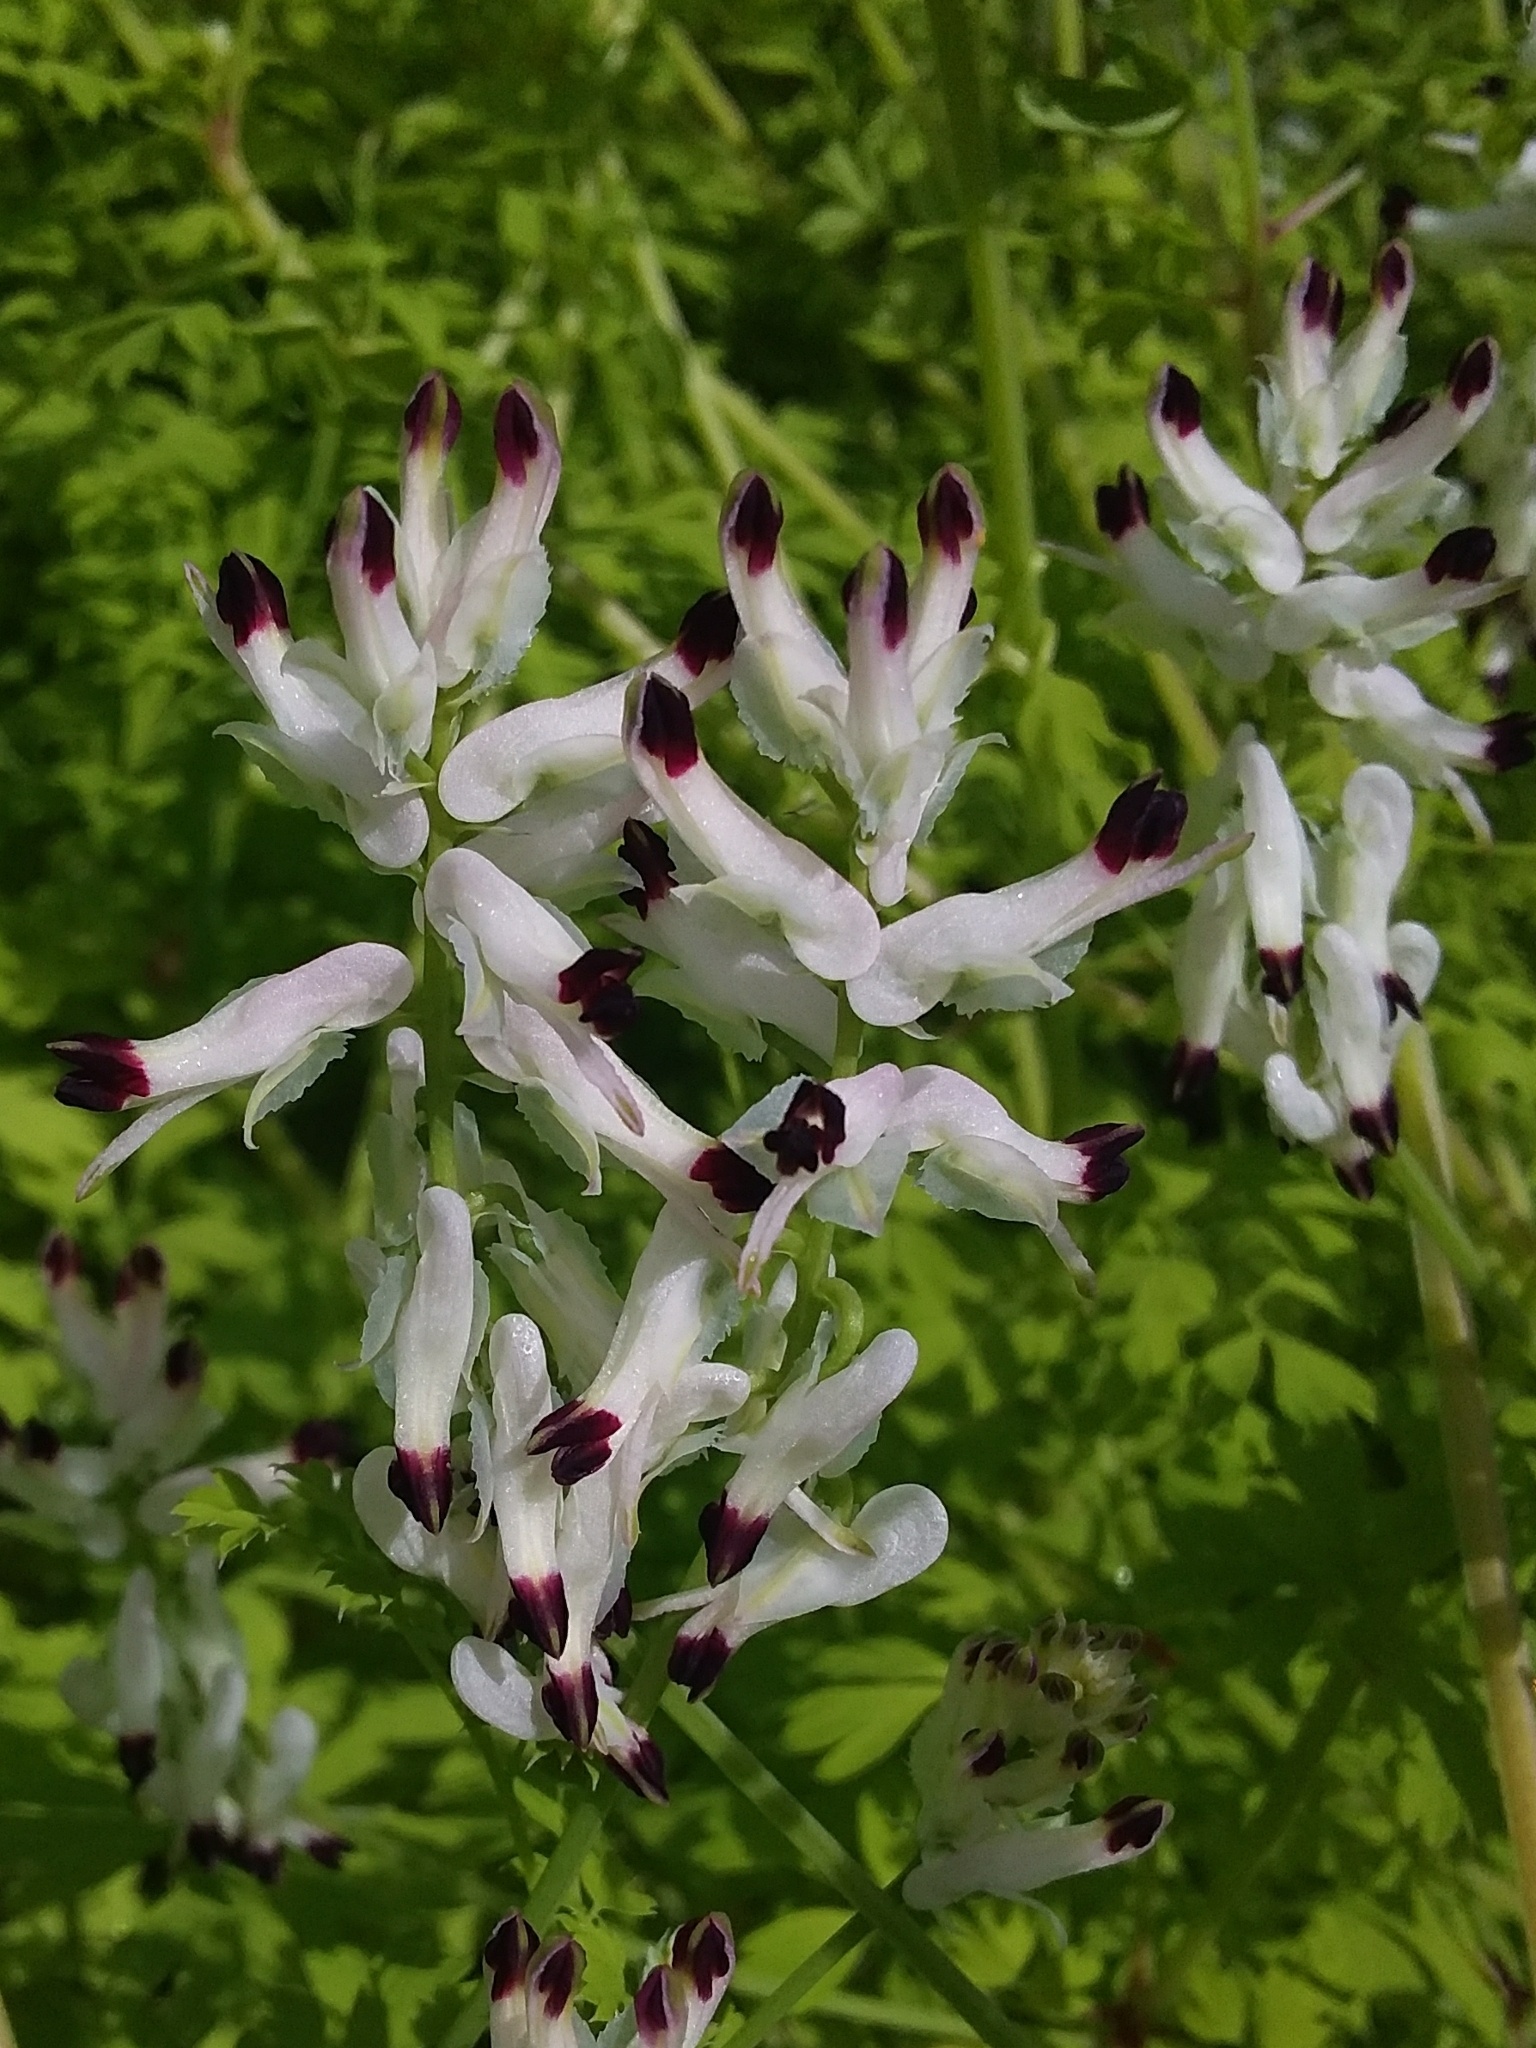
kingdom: Plantae
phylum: Tracheophyta
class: Magnoliopsida
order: Ranunculales
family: Papaveraceae
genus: Fumaria
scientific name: Fumaria capreolata
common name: White ramping-fumitory
